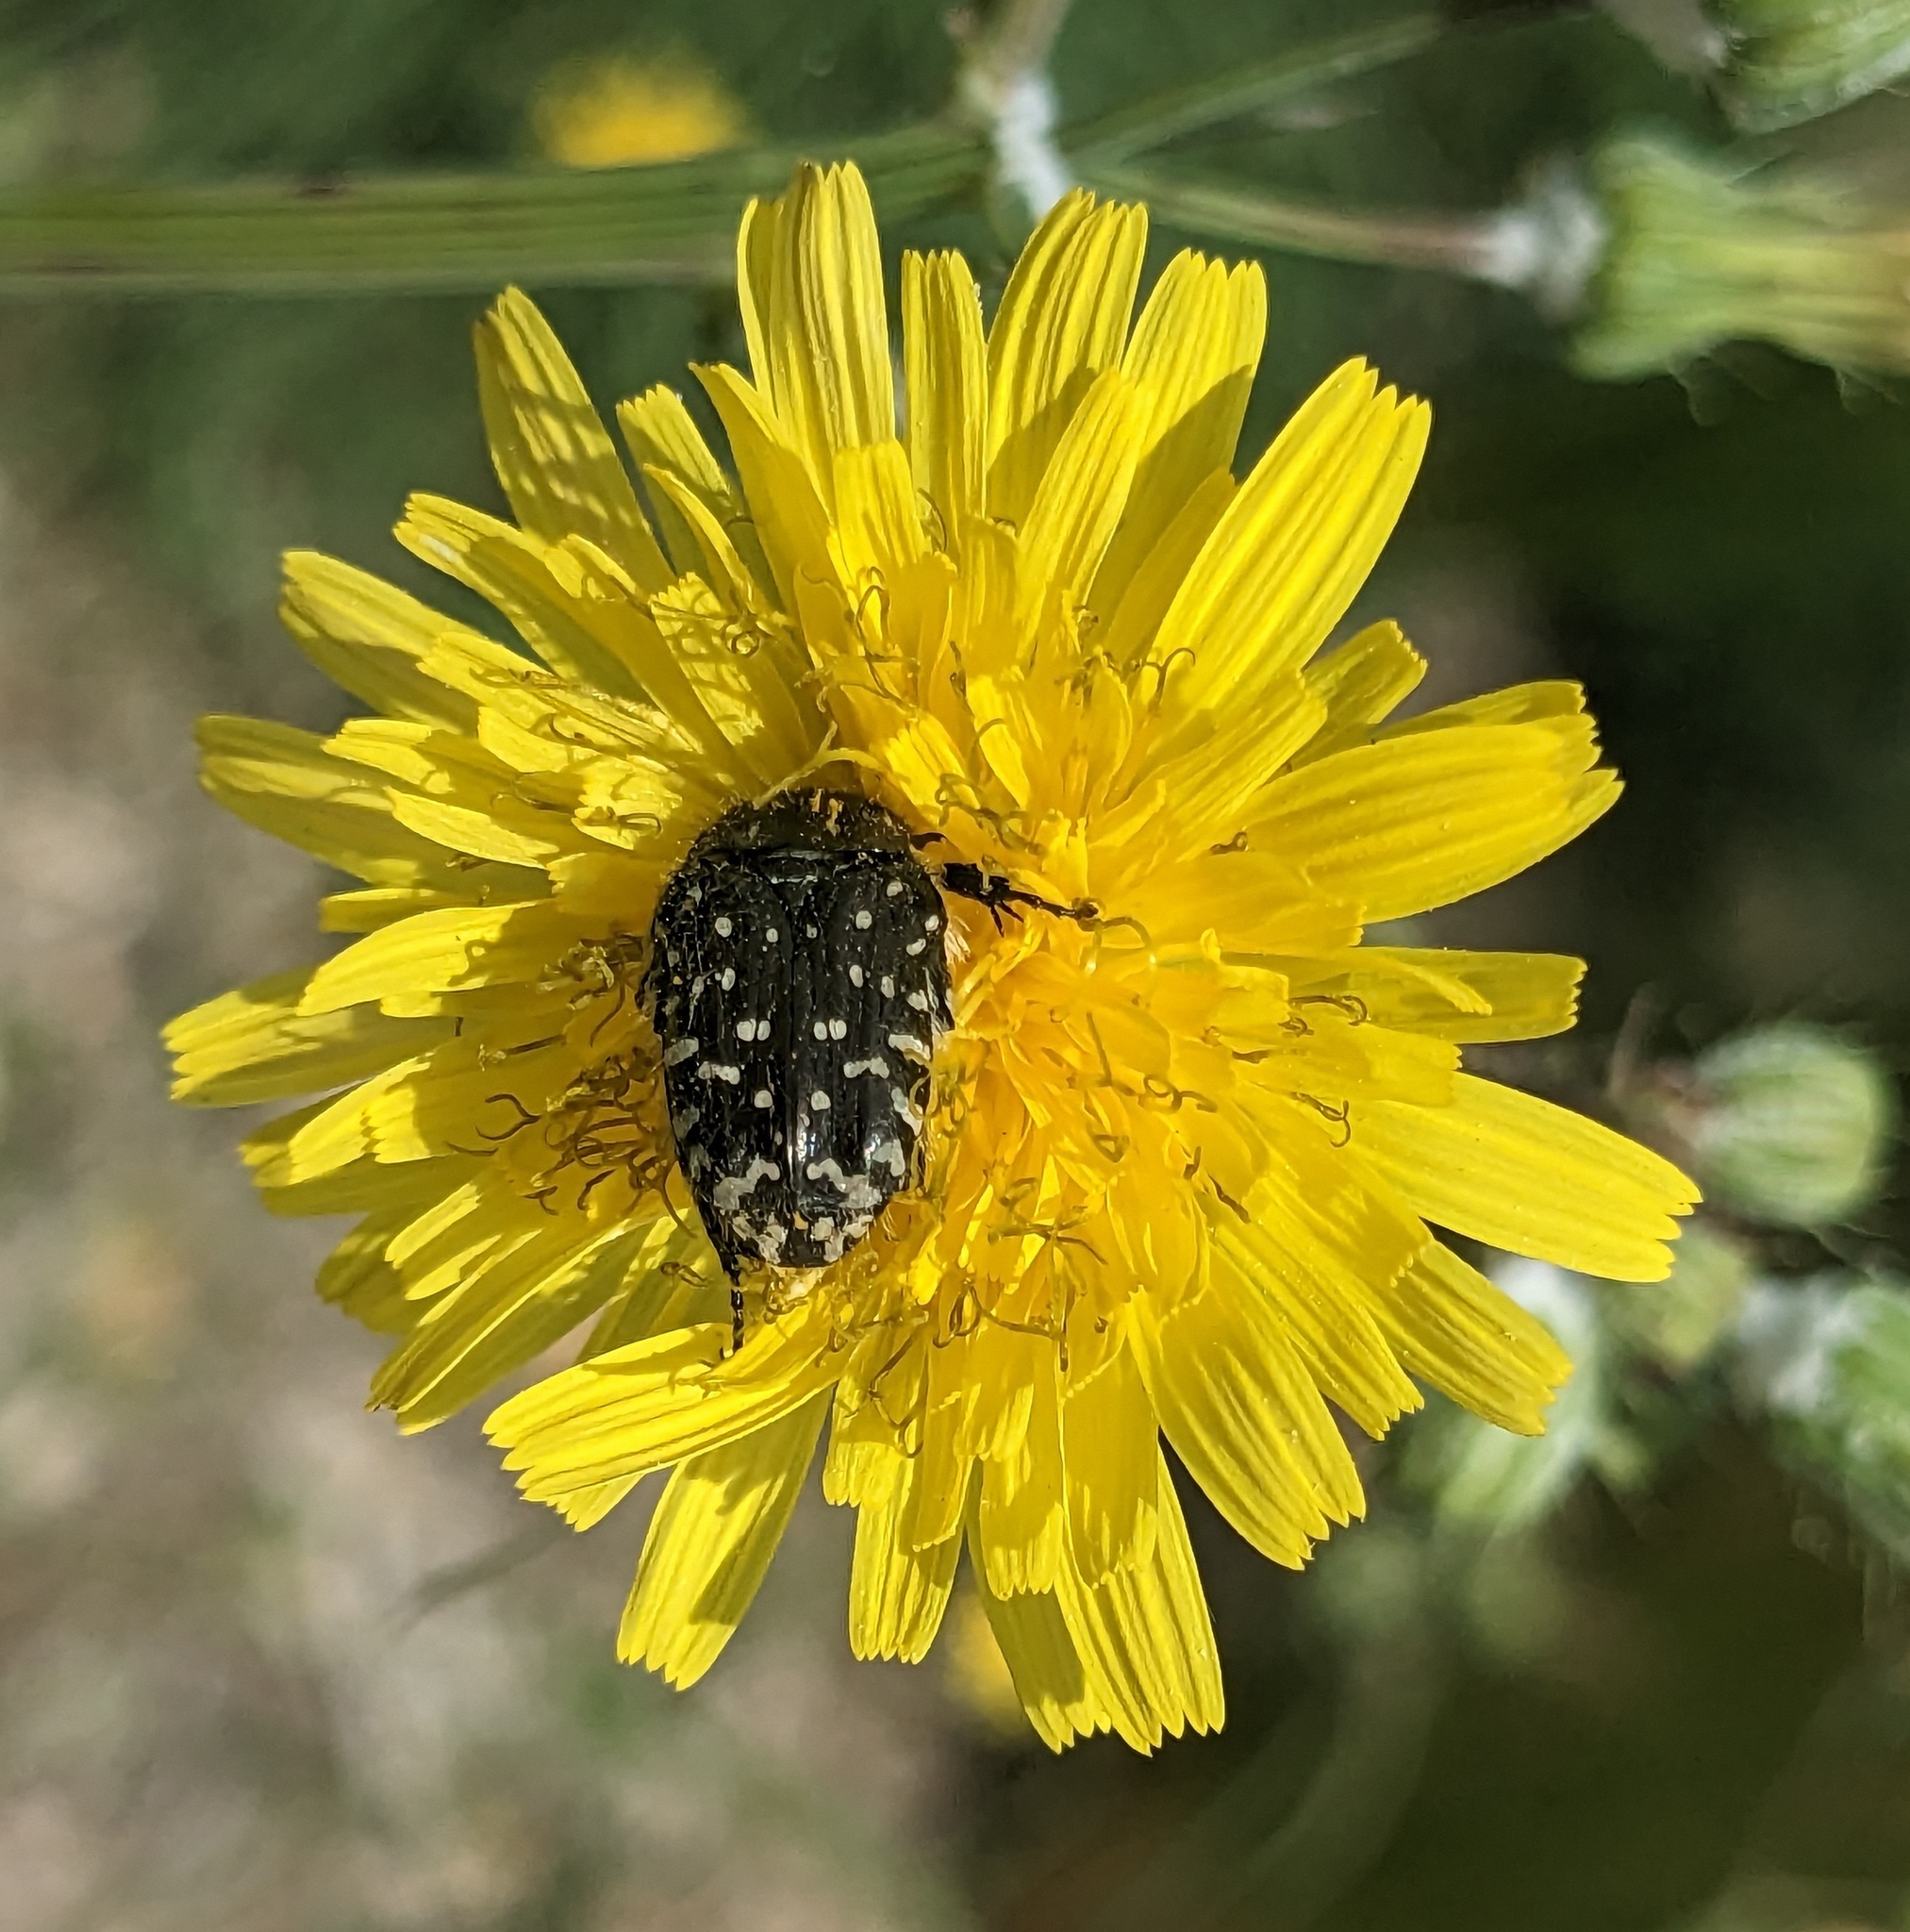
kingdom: Animalia
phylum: Arthropoda
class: Insecta
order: Coleoptera
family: Scarabaeidae
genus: Oxythyrea
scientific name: Oxythyrea funesta
